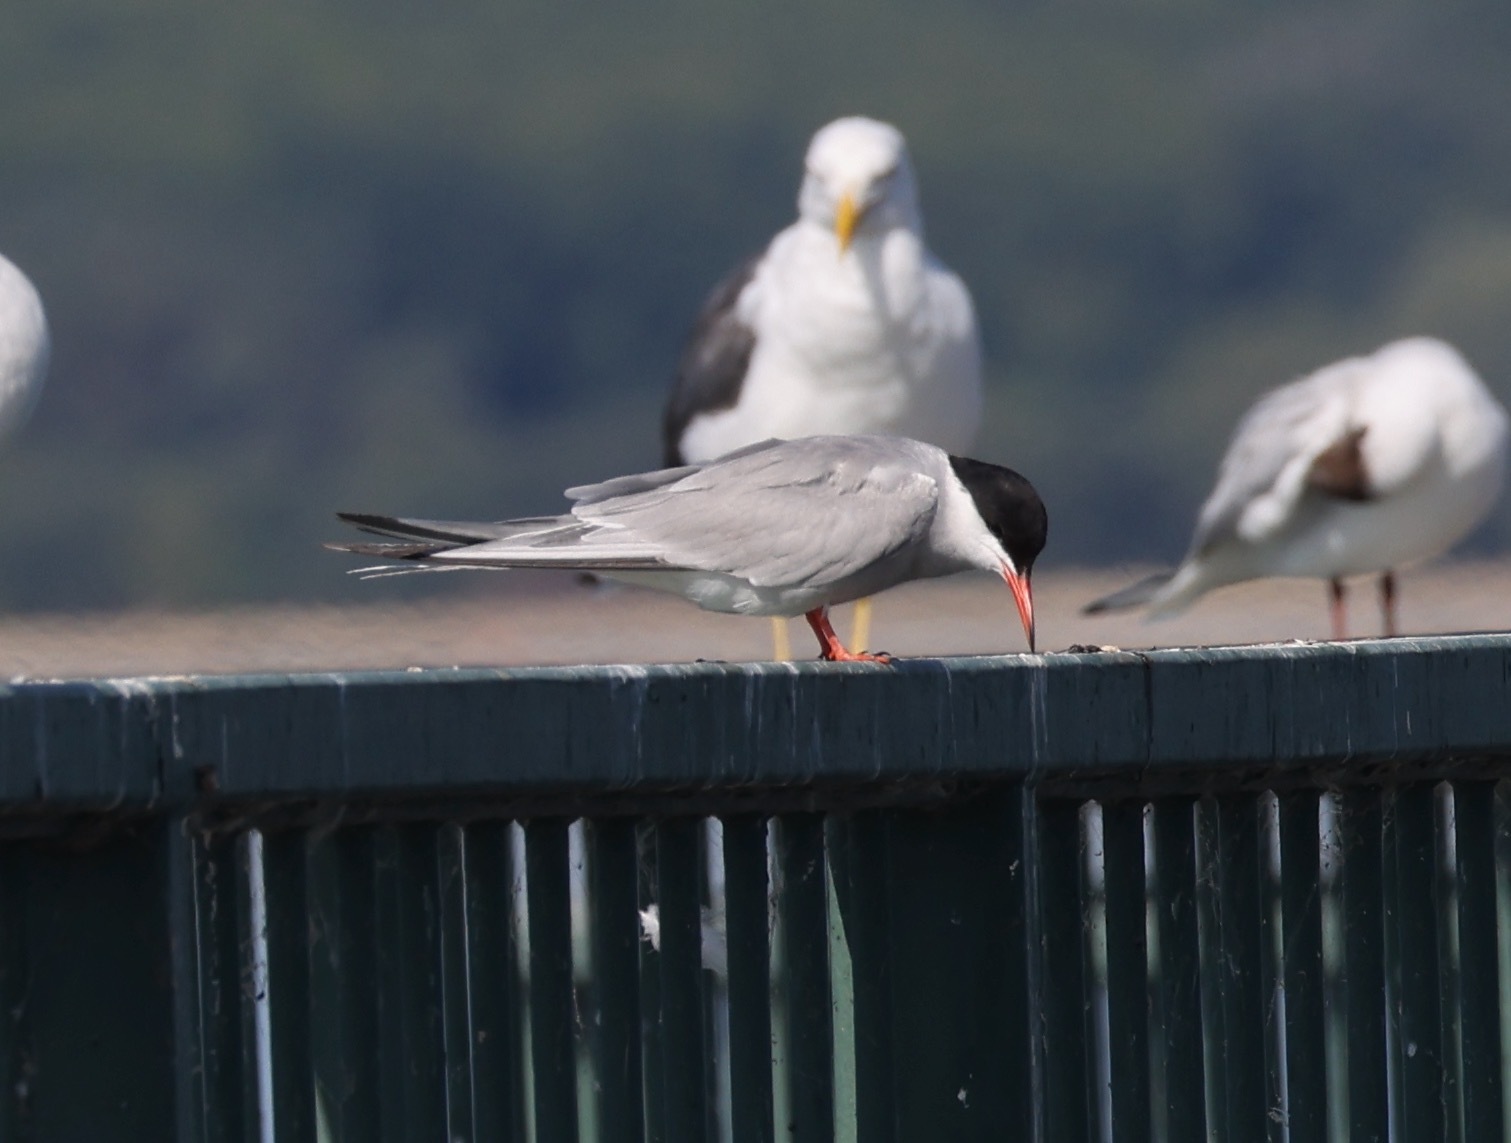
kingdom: Animalia
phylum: Chordata
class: Aves
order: Charadriiformes
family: Laridae
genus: Sterna
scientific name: Sterna hirundo
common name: Common tern
